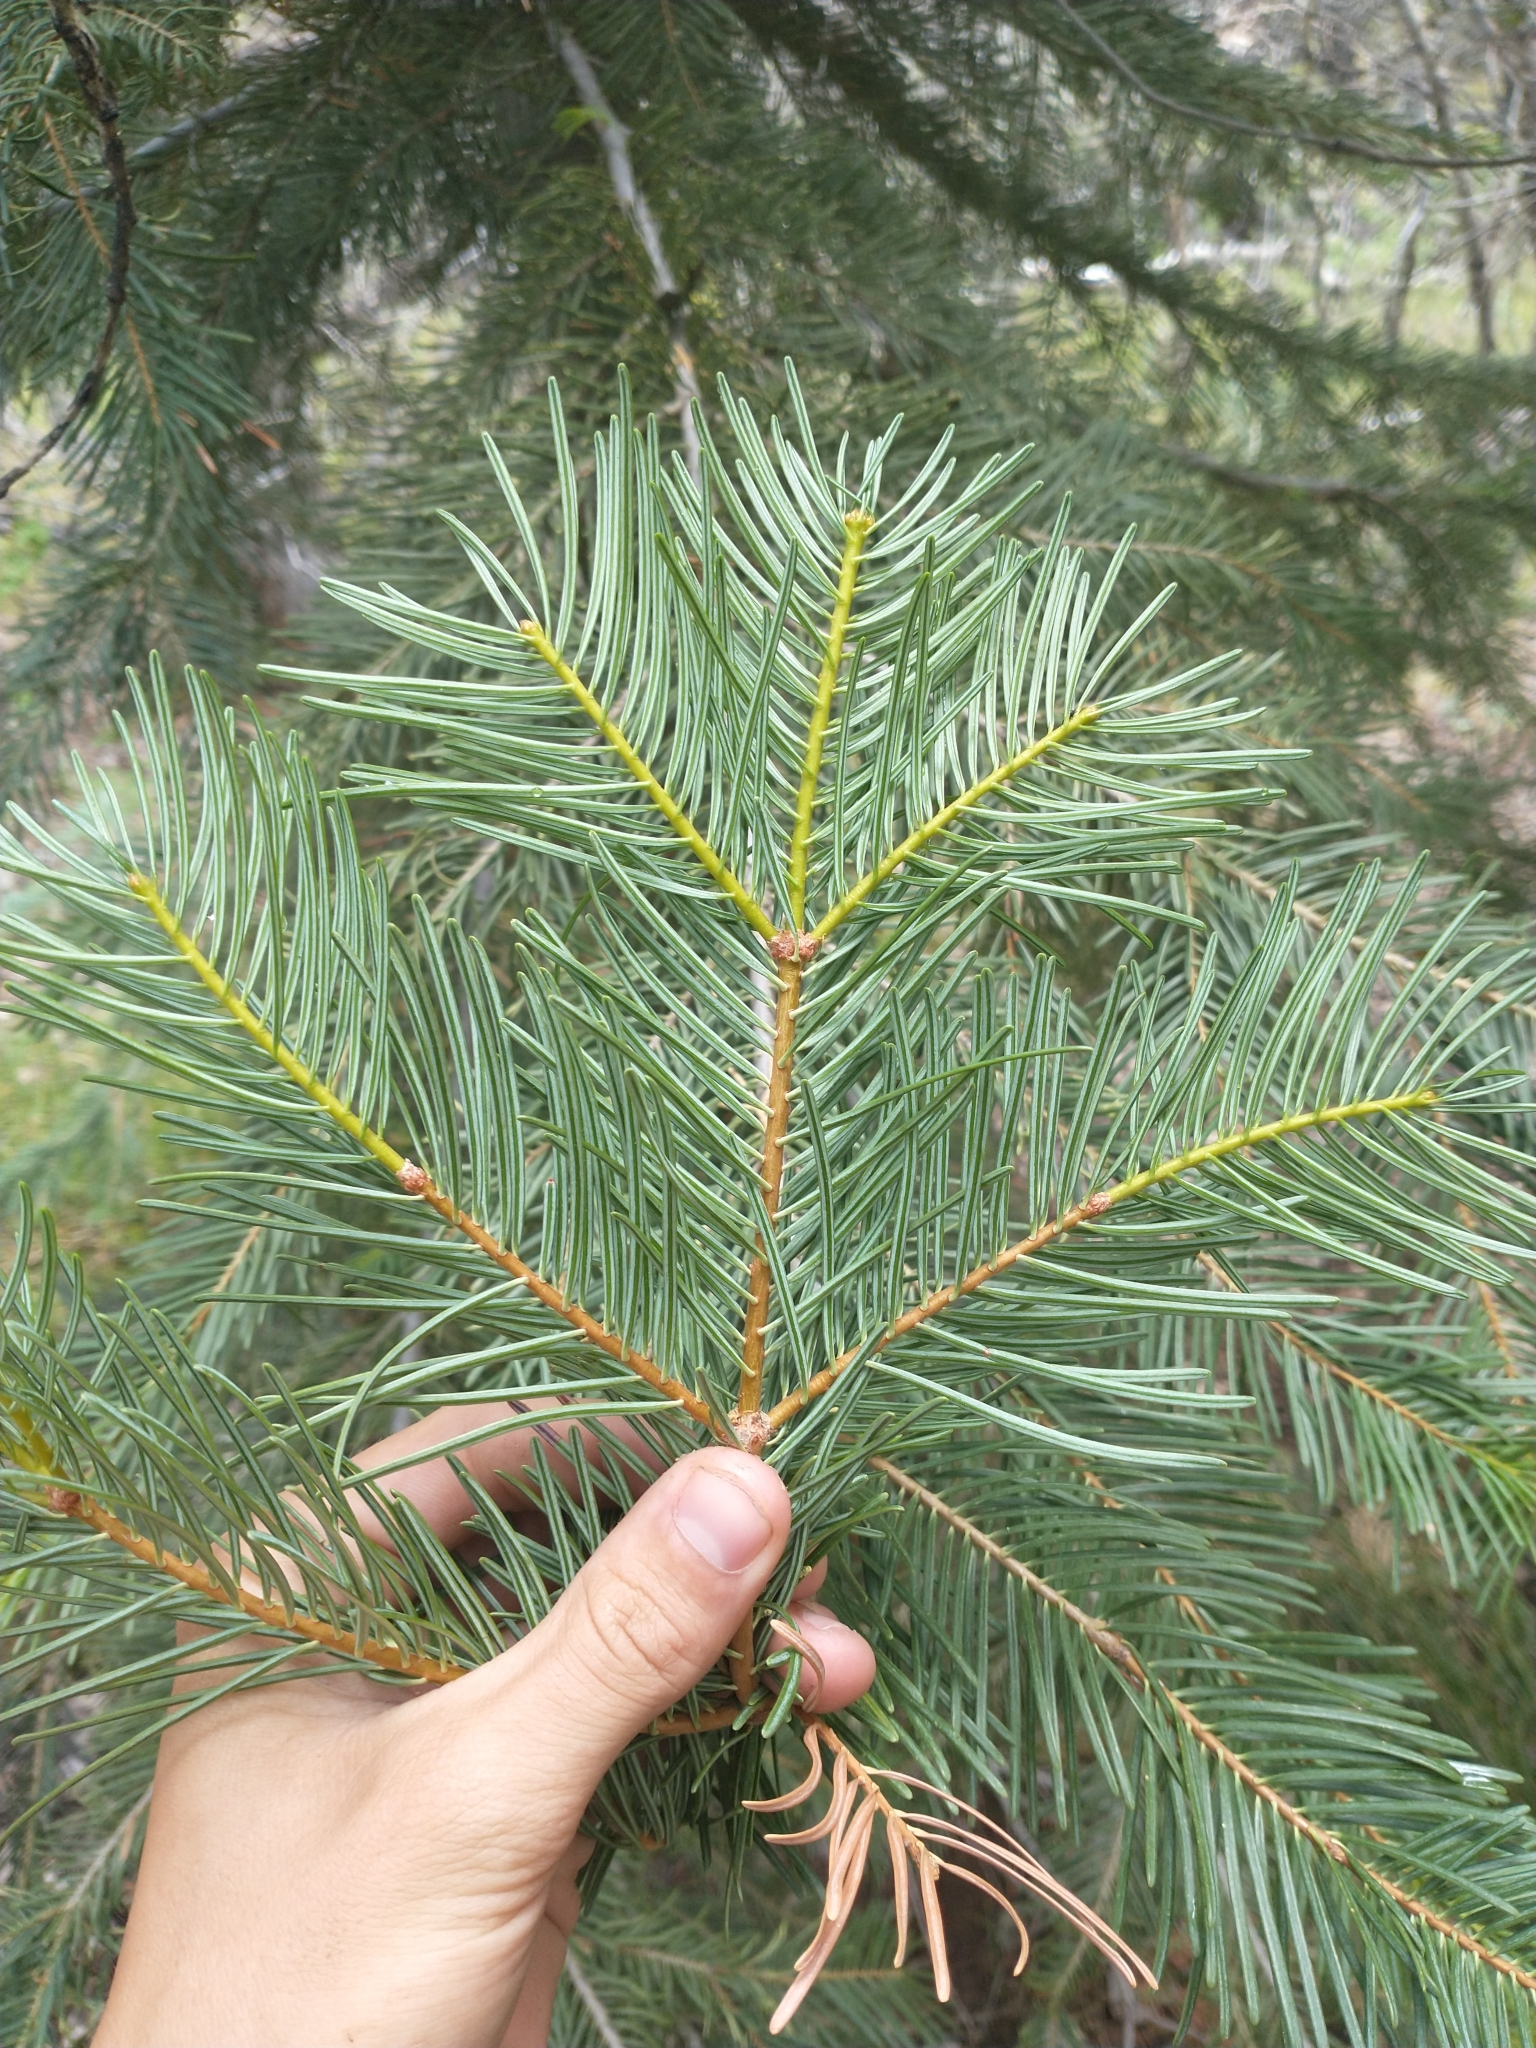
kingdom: Plantae
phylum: Tracheophyta
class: Pinopsida
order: Pinales
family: Pinaceae
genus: Abies
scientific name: Abies concolor
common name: Colorado fir
